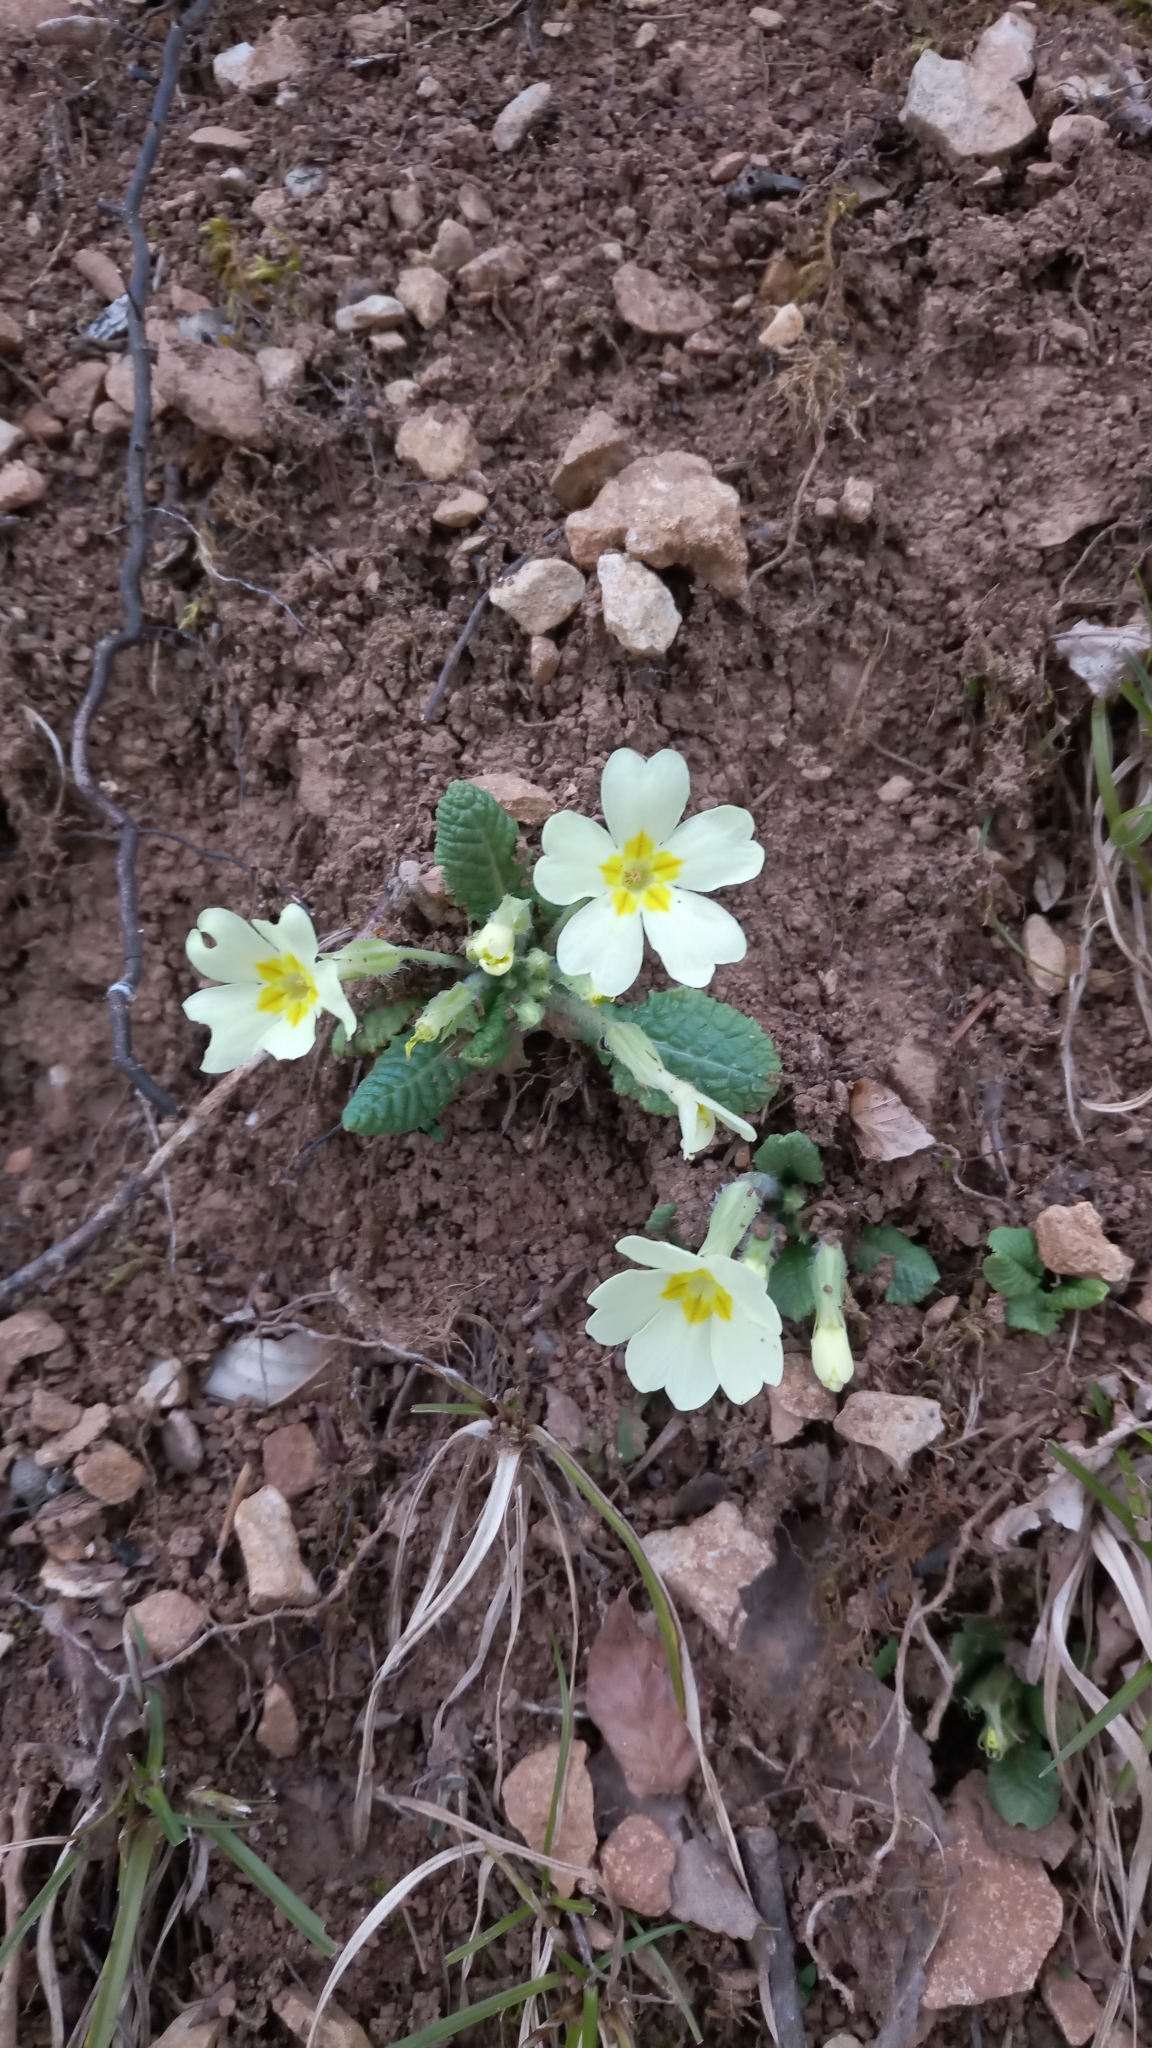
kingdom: Plantae
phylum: Tracheophyta
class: Magnoliopsida
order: Ericales
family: Primulaceae
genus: Primula
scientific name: Primula vulgaris
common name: Primrose
